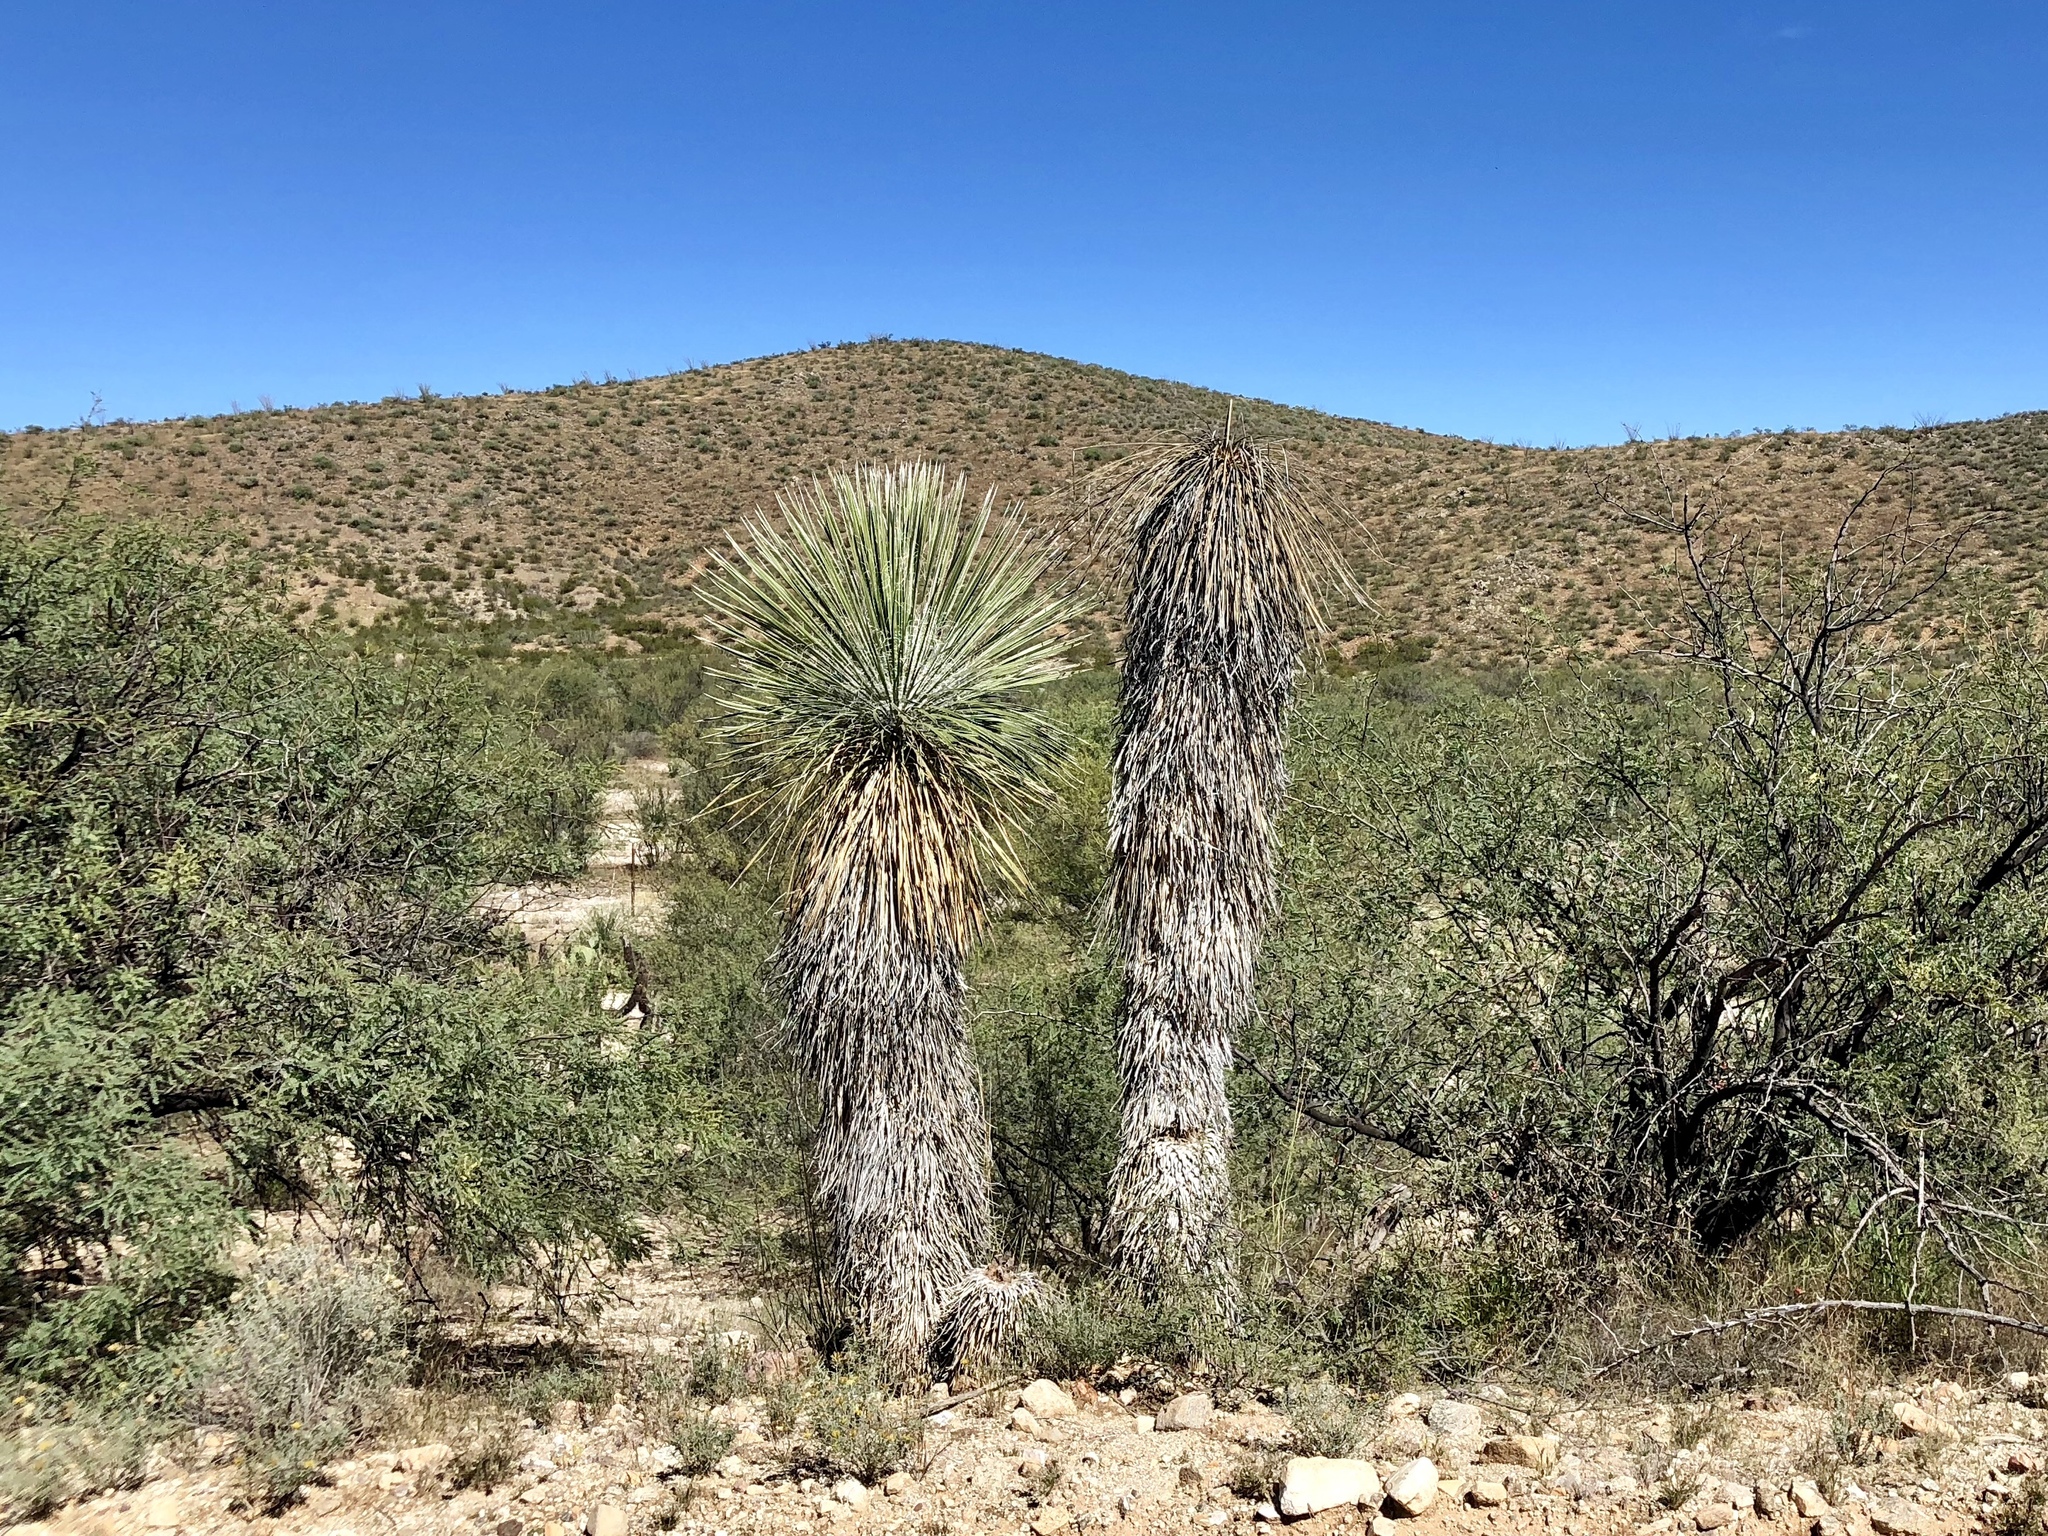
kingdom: Plantae
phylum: Tracheophyta
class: Liliopsida
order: Asparagales
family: Asparagaceae
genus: Yucca
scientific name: Yucca elata
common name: Palmella
